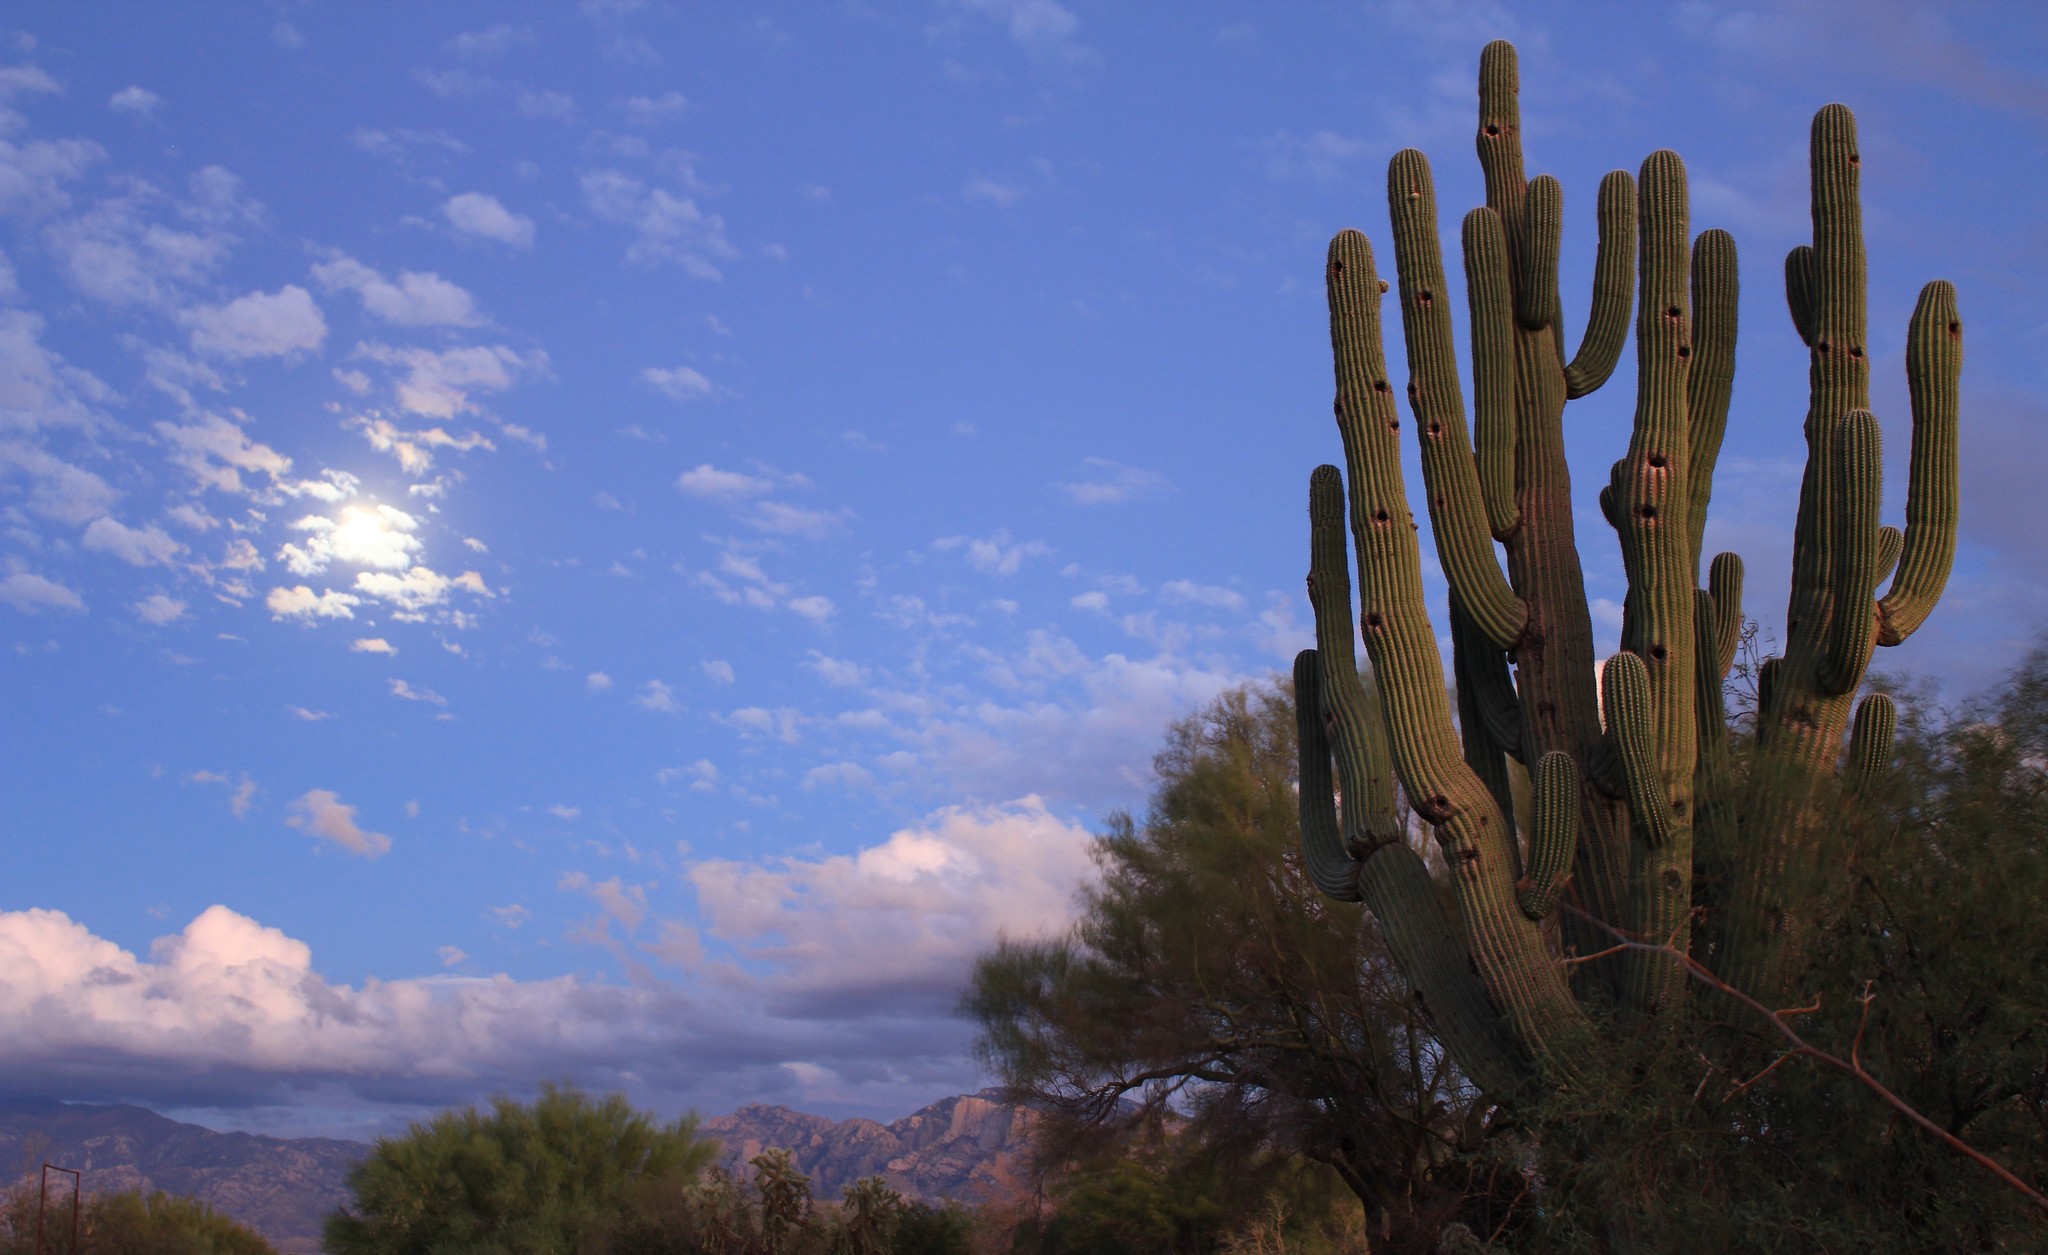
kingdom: Plantae
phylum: Tracheophyta
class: Magnoliopsida
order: Caryophyllales
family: Cactaceae
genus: Carnegiea
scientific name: Carnegiea gigantea
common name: Saguaro
